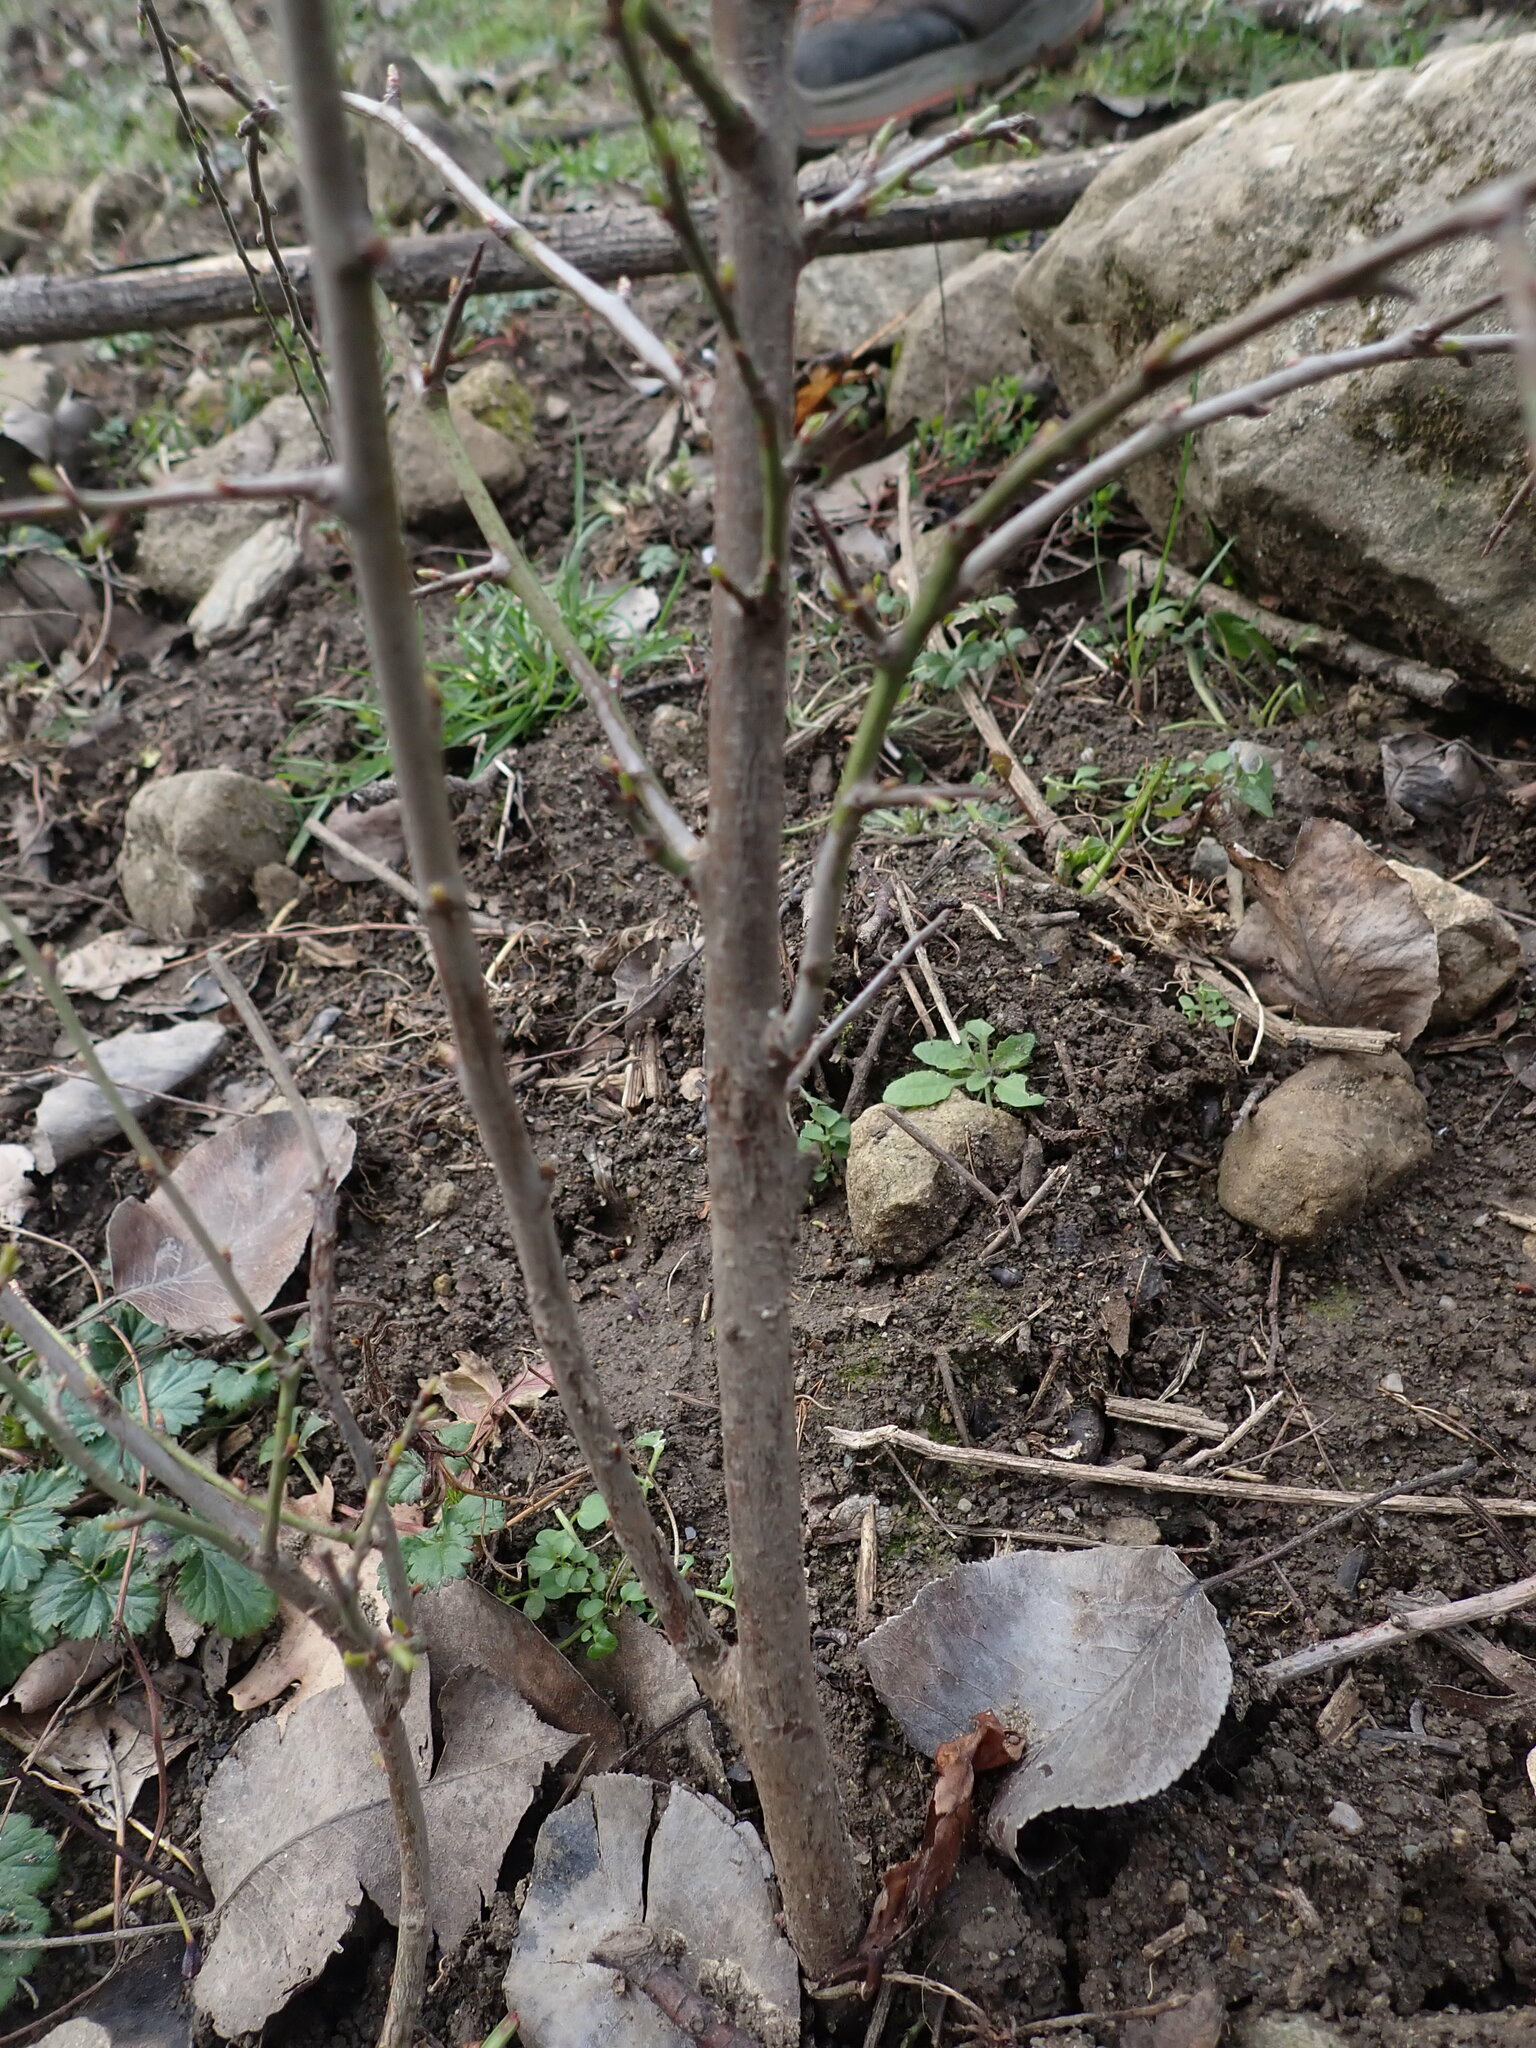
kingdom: Animalia
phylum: Arthropoda
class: Insecta
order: Lepidoptera
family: Lycaenidae
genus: Thecla
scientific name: Thecla betulae
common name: Brown hairstreak
